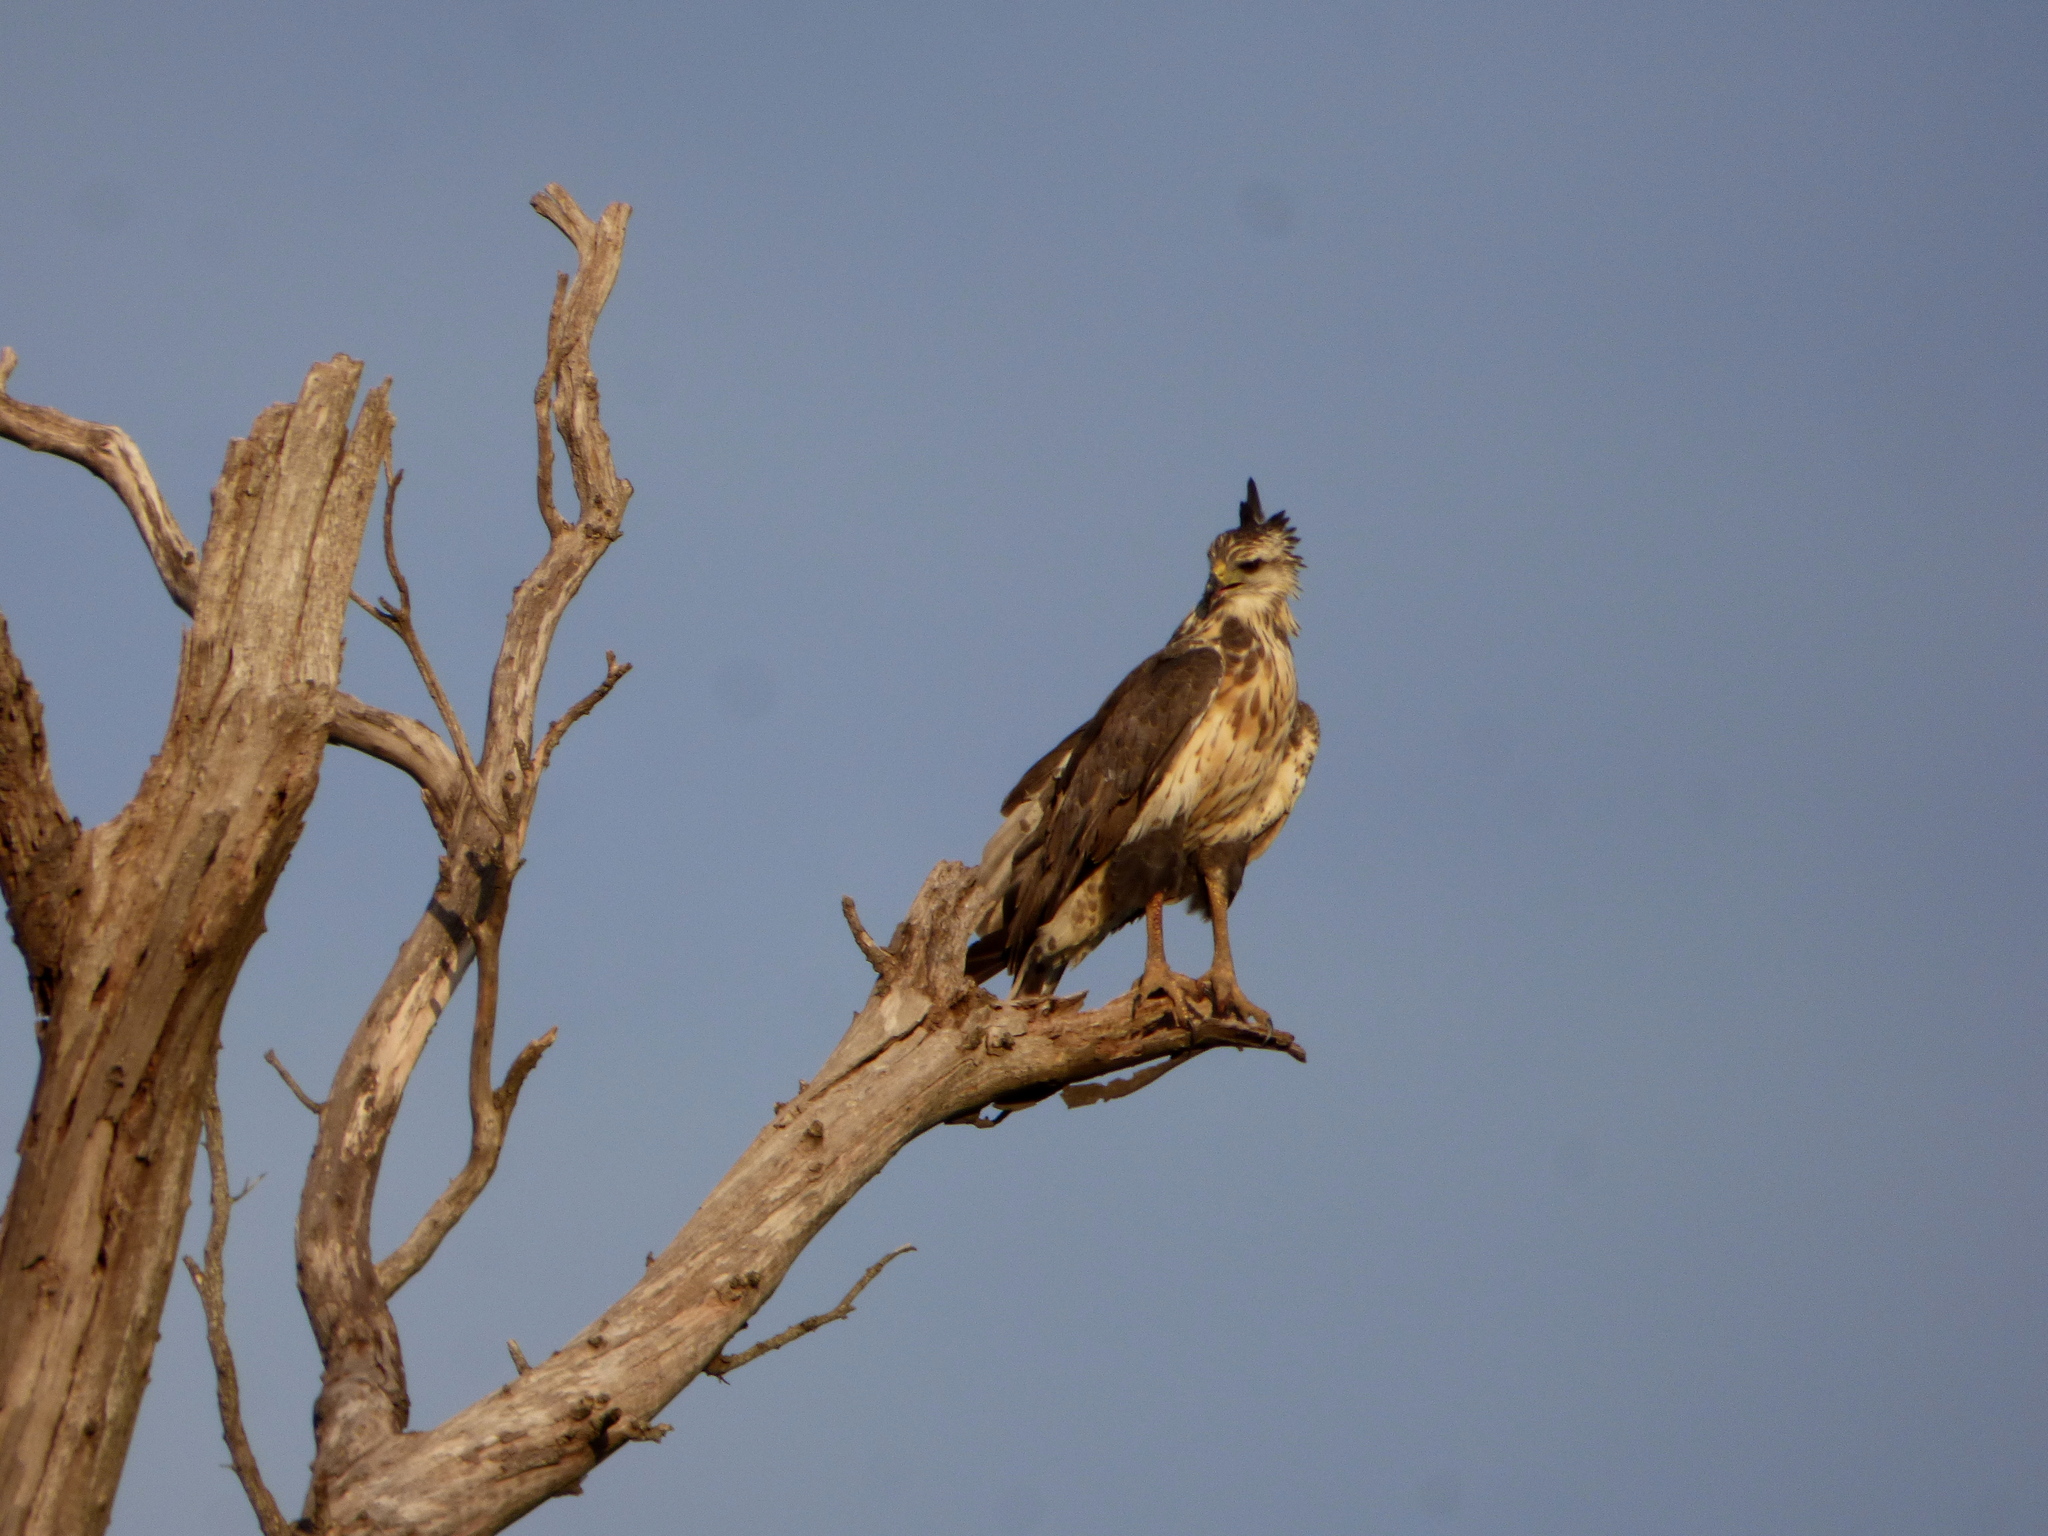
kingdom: Animalia
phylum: Chordata
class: Aves
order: Accipitriformes
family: Accipitridae
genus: Harpyhaliaetus
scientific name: Harpyhaliaetus coronatus
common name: Crowned solitary eagle
